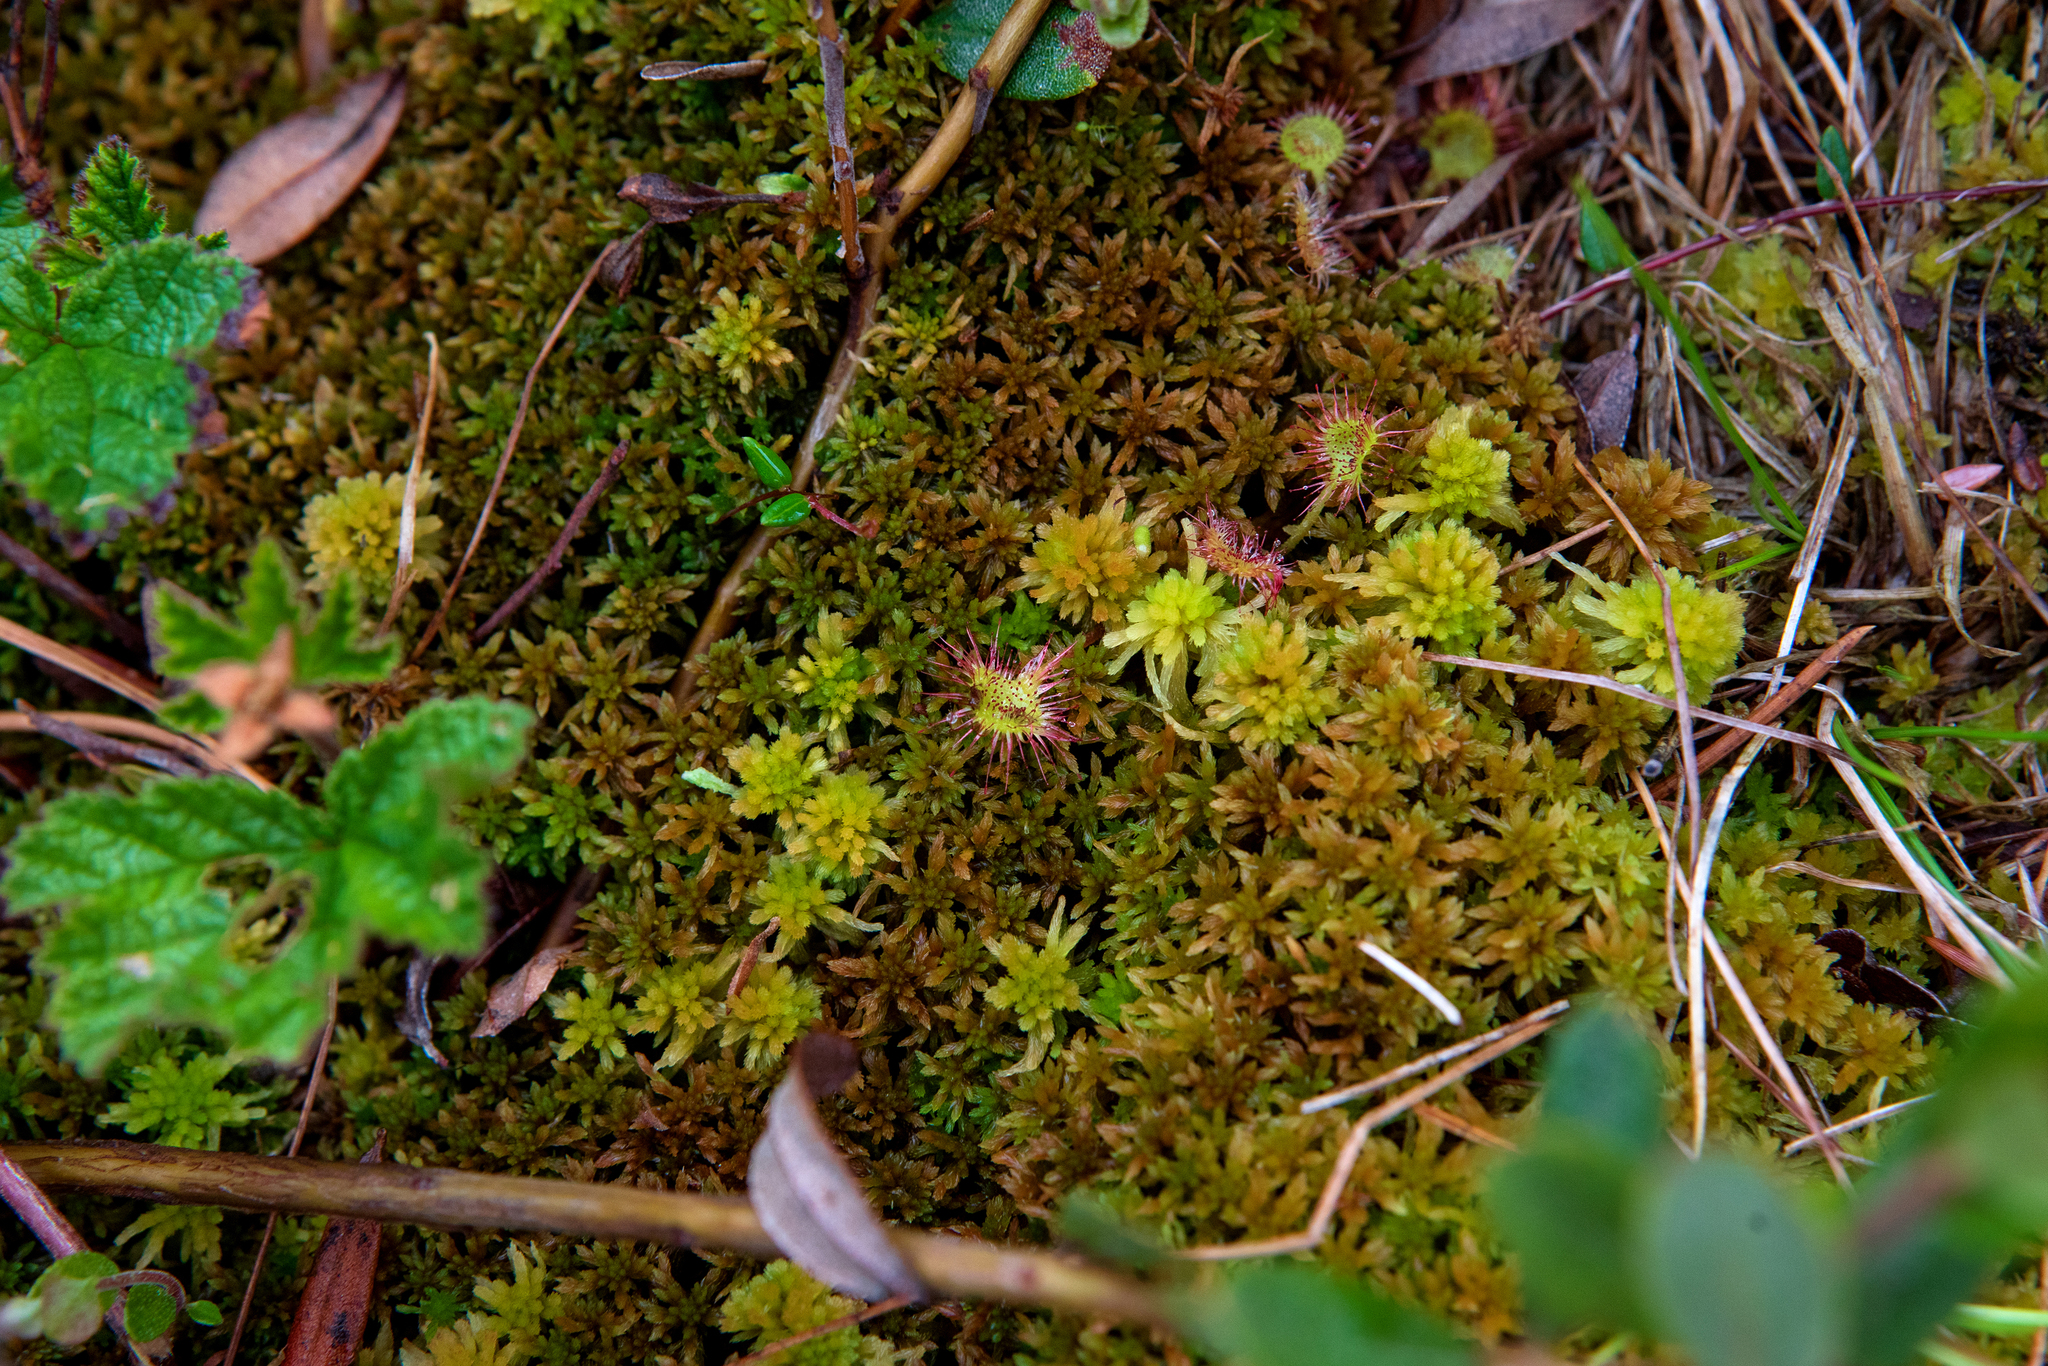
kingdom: Plantae
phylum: Bryophyta
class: Sphagnopsida
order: Sphagnales
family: Sphagnaceae
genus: Sphagnum
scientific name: Sphagnum fuscum
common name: Brown peat moss
